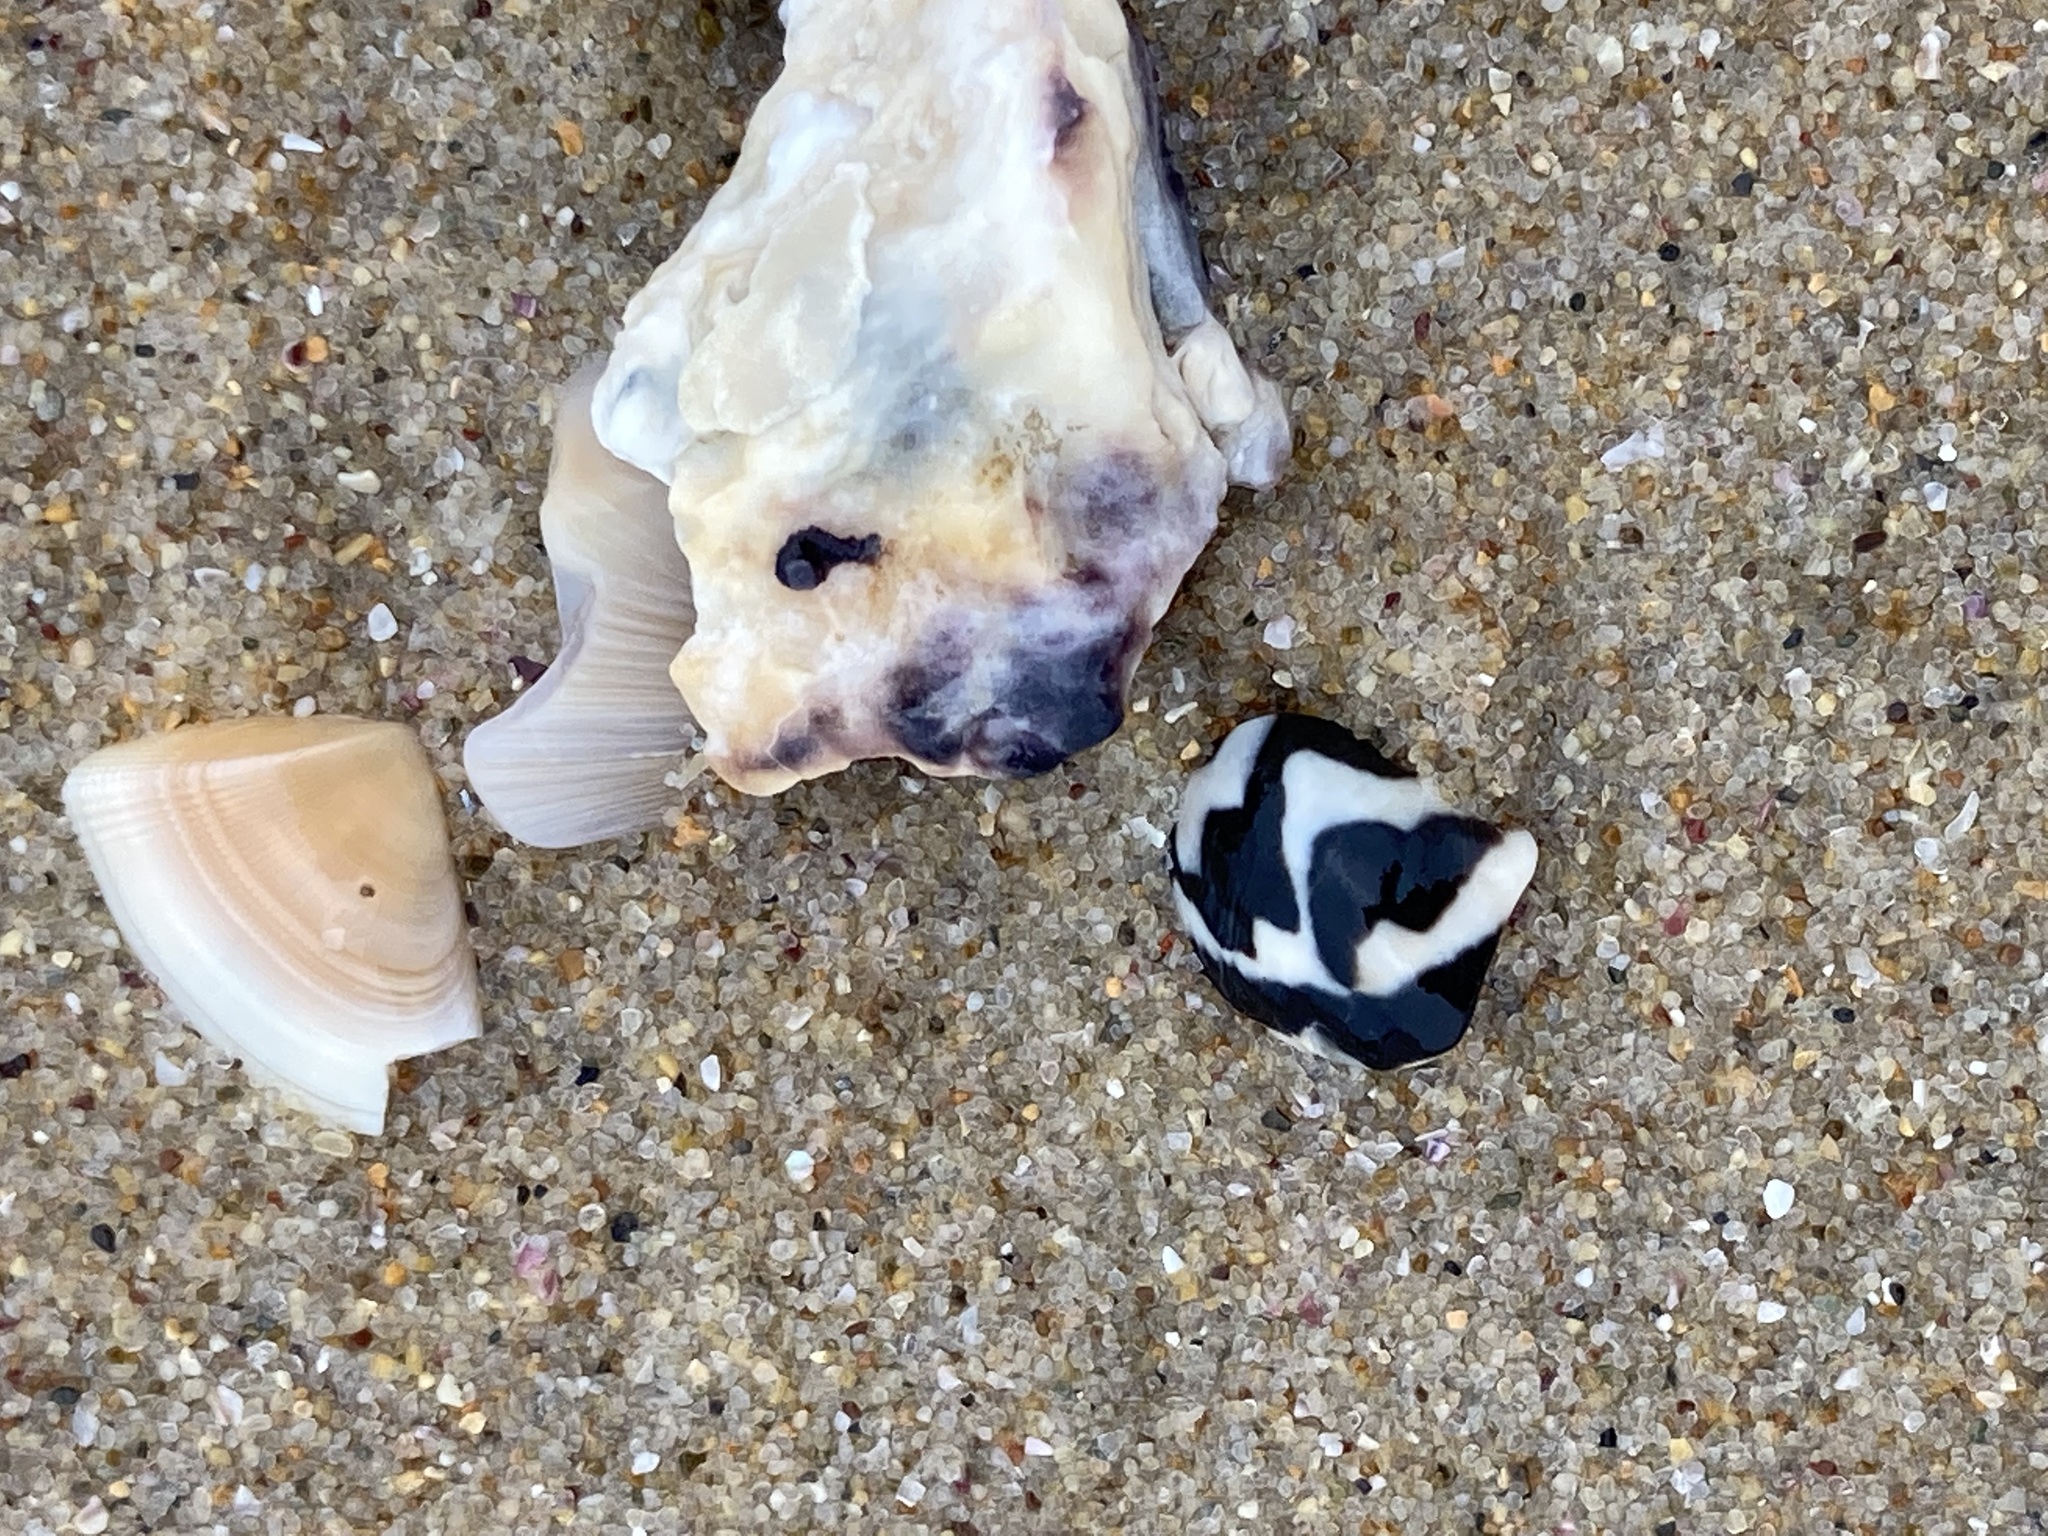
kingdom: Animalia
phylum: Mollusca
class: Gastropoda
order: Trochida
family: Trochidae
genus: Austrocochlea
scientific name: Austrocochlea porcata
